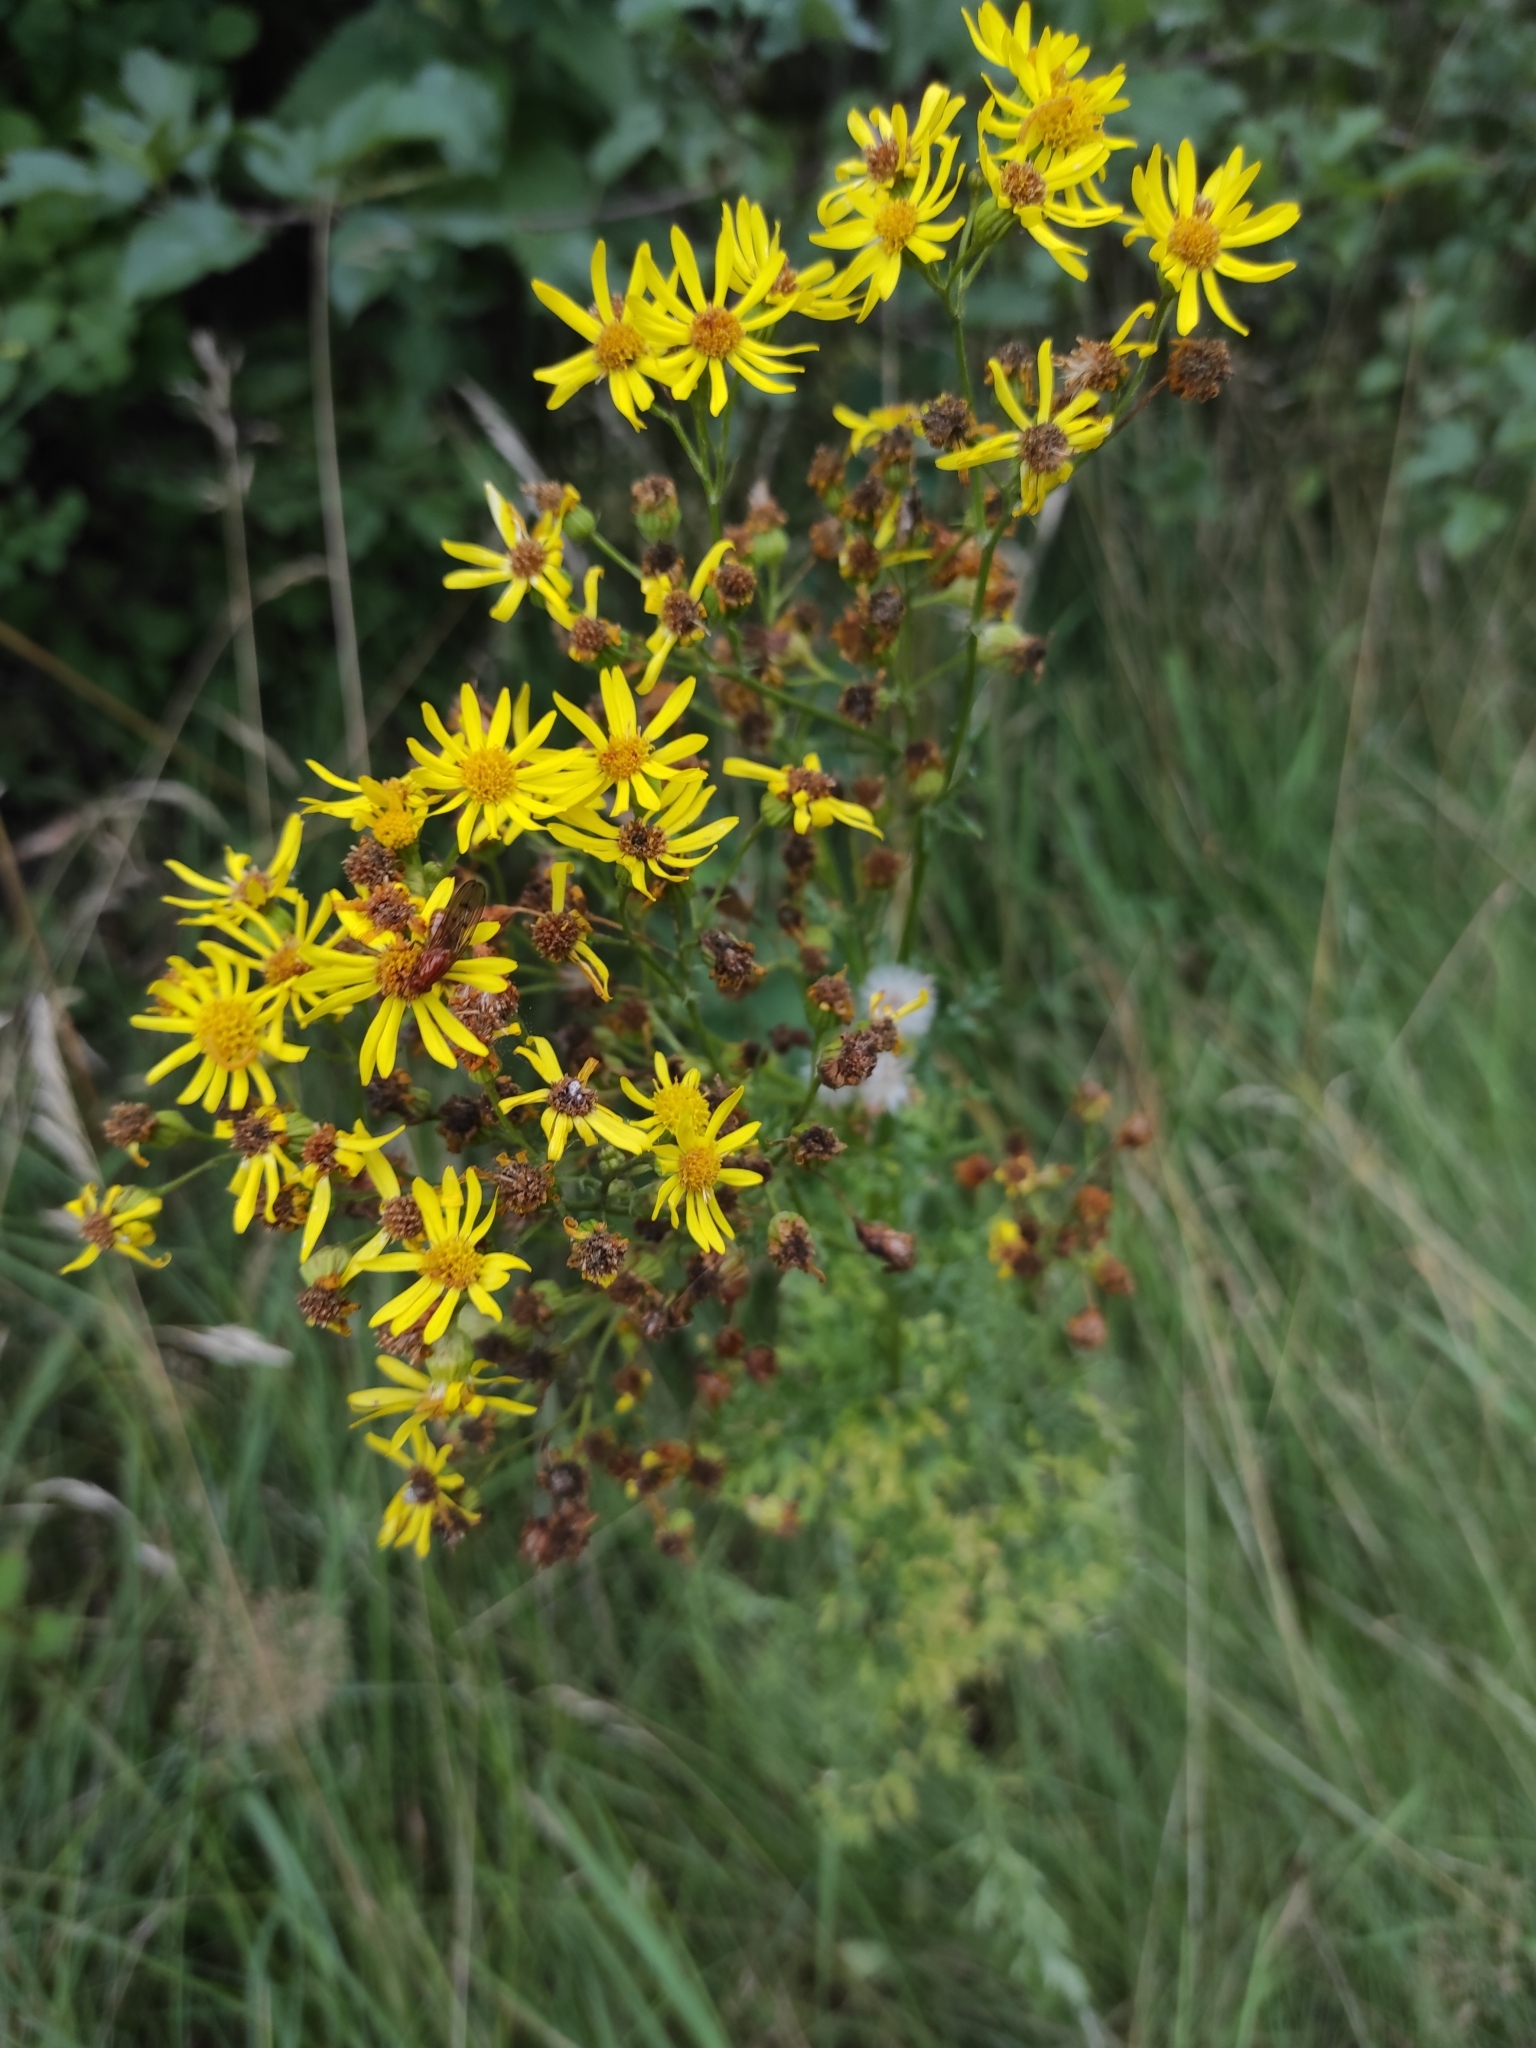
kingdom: Plantae
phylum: Tracheophyta
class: Magnoliopsida
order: Asterales
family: Asteraceae
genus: Jacobaea
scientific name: Jacobaea vulgaris
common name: Stinking willie
